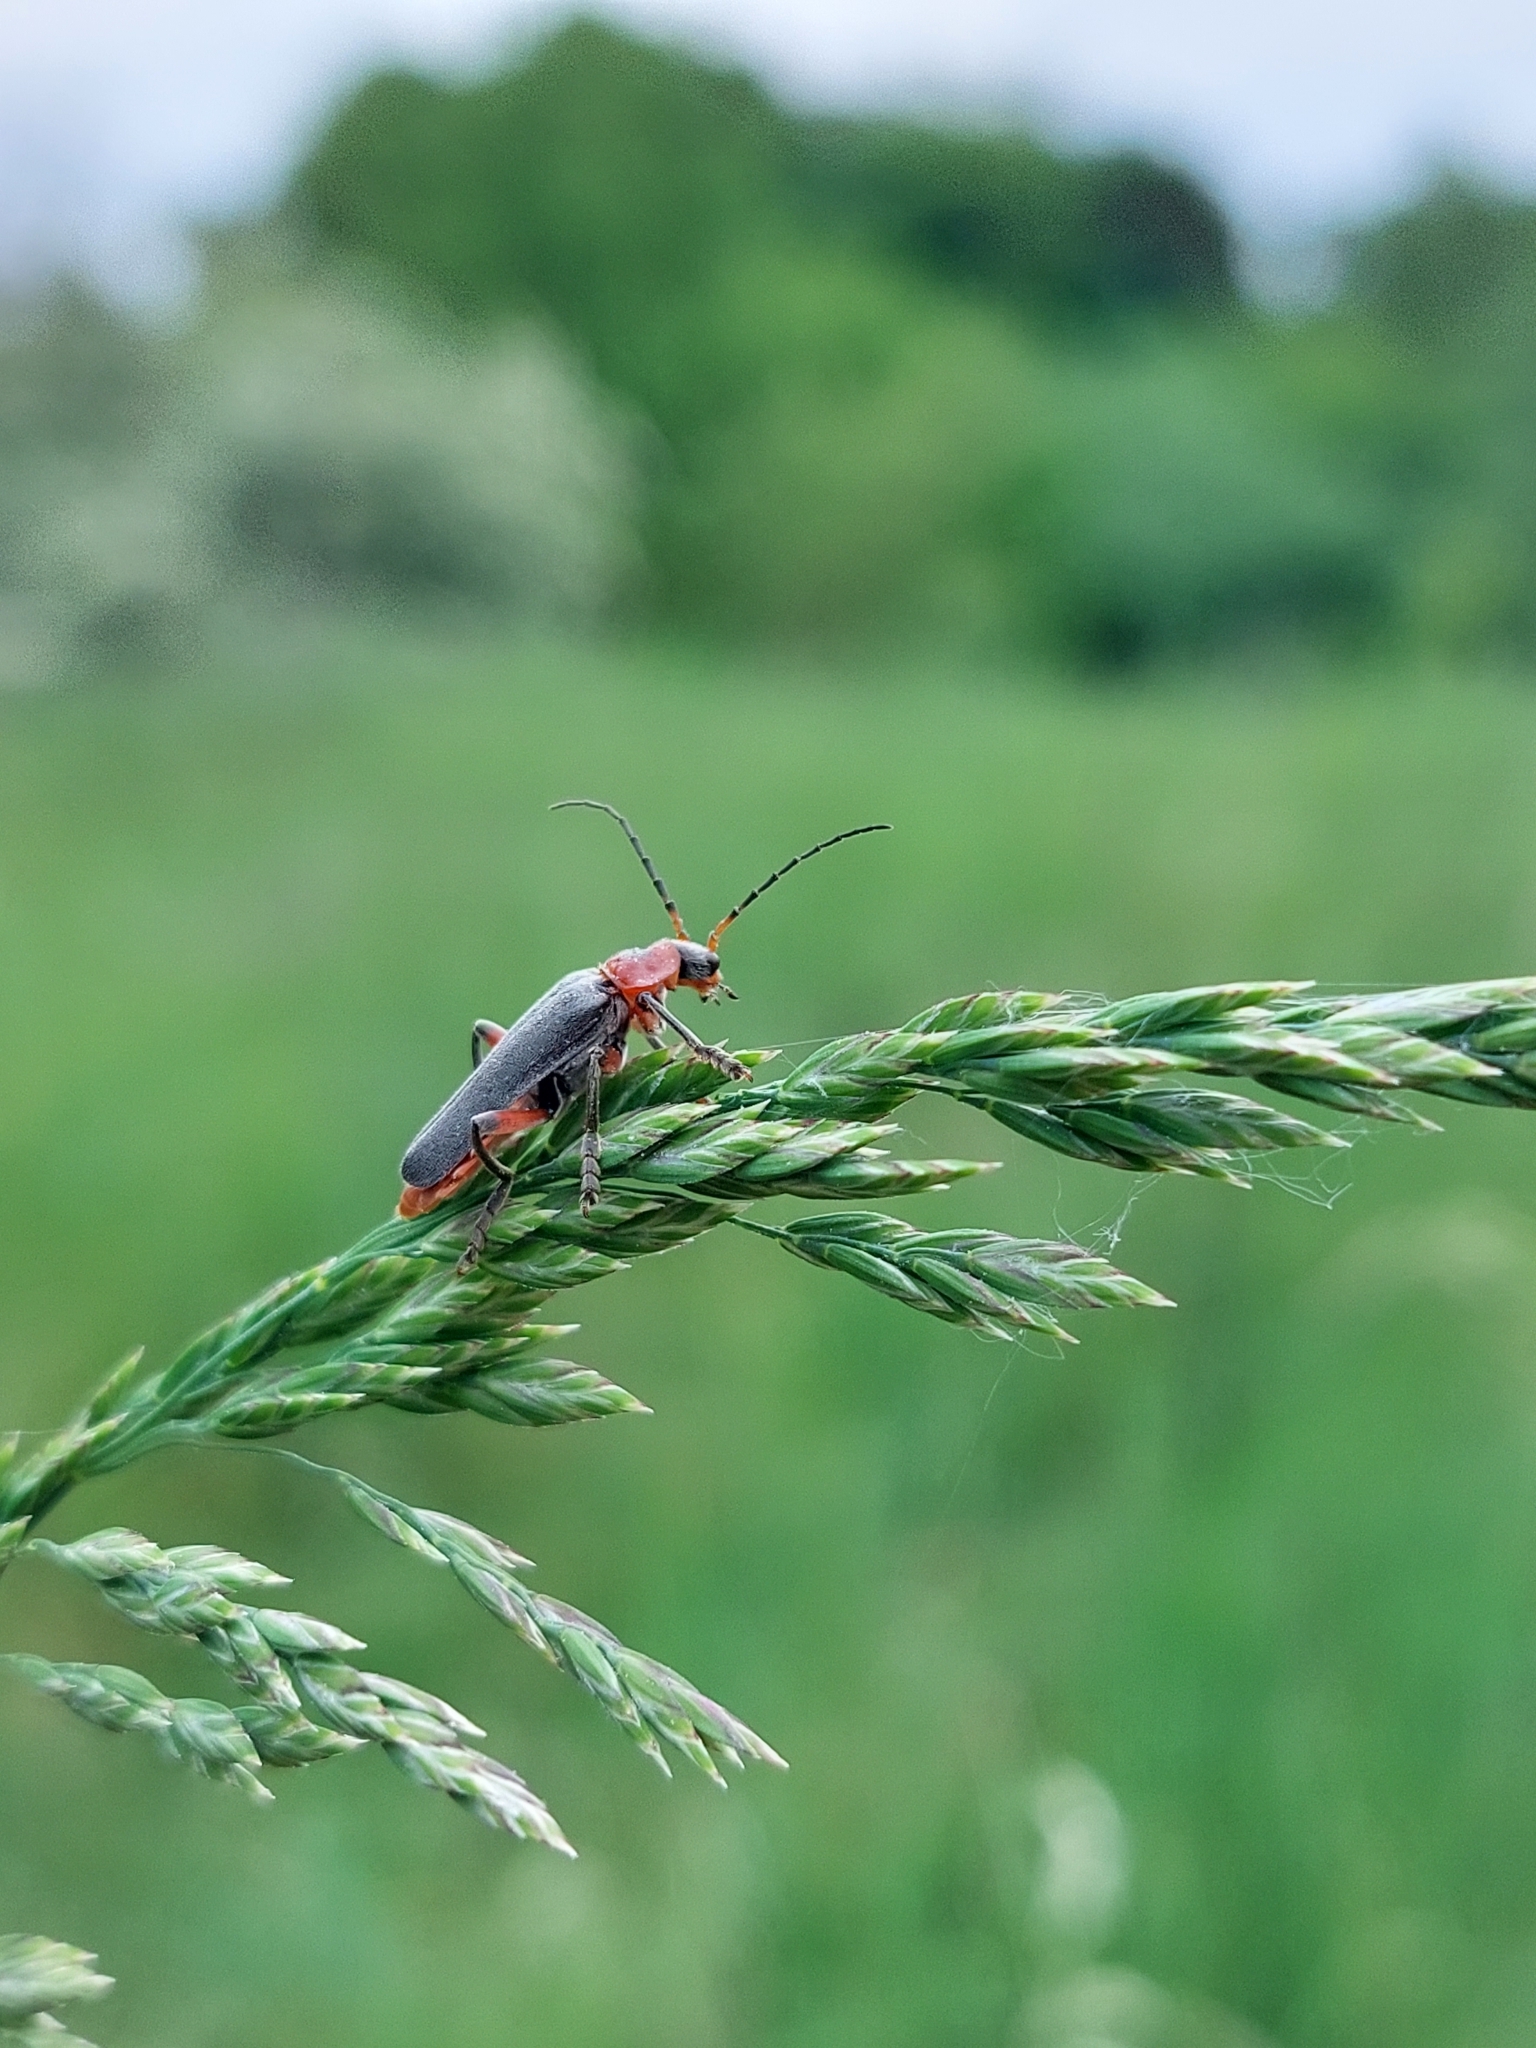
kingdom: Animalia
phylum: Arthropoda
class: Insecta
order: Coleoptera
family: Cantharidae
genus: Cantharis
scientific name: Cantharis rustica
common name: Soldier beetle
